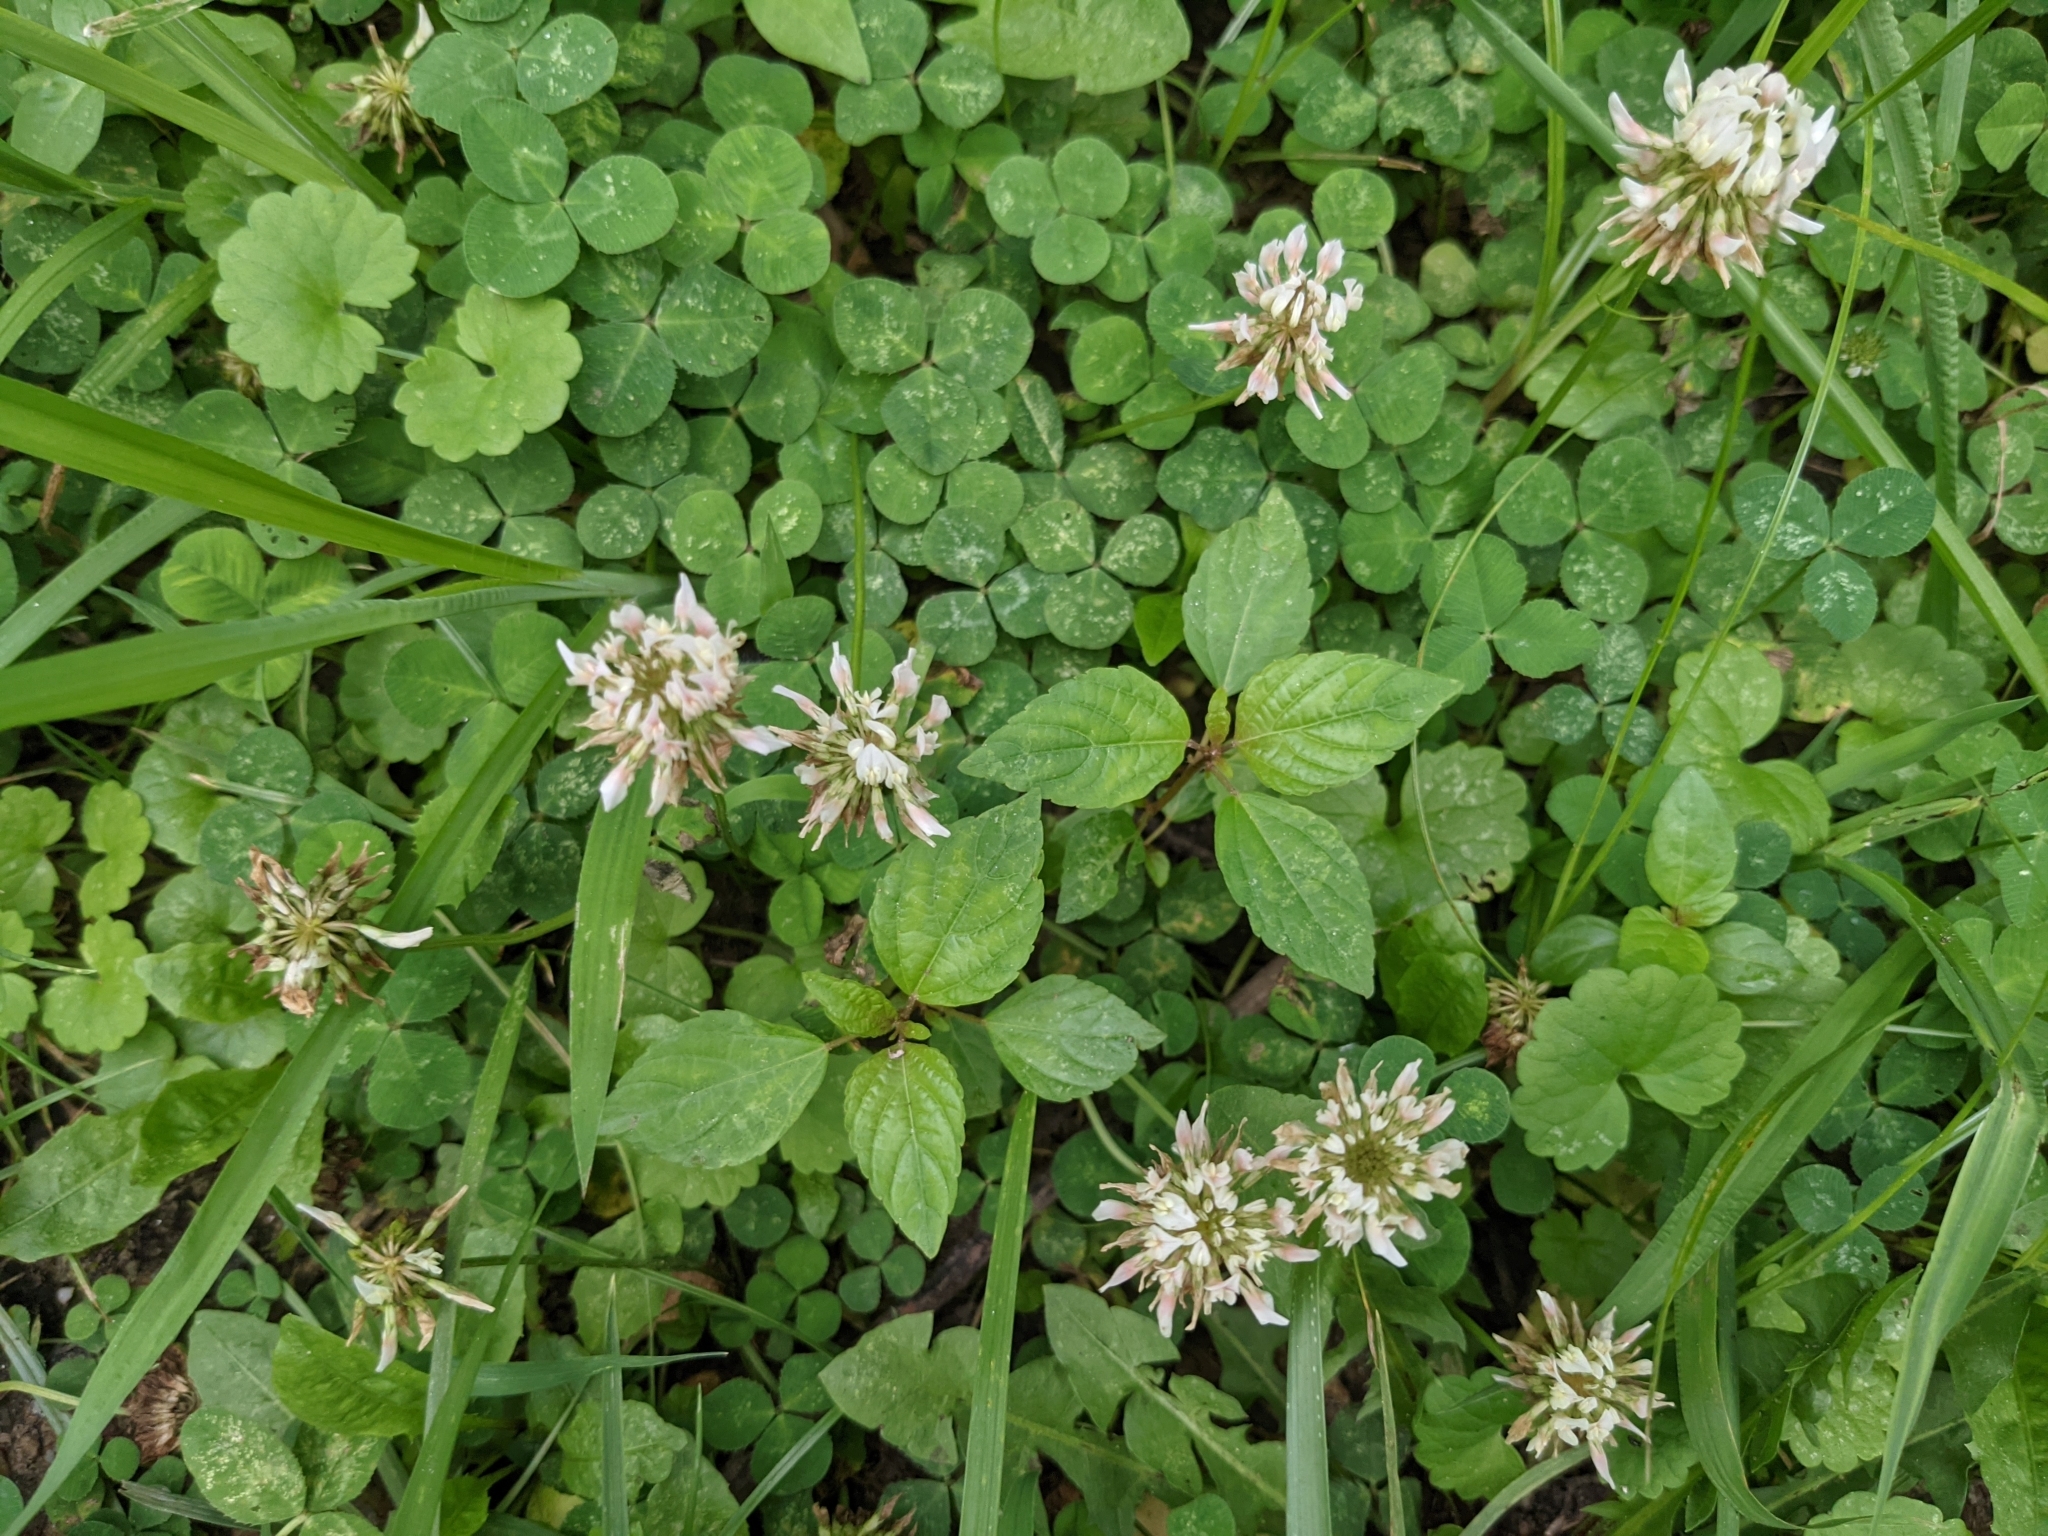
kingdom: Plantae
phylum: Tracheophyta
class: Magnoliopsida
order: Fabales
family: Fabaceae
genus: Trifolium
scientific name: Trifolium repens
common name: White clover
